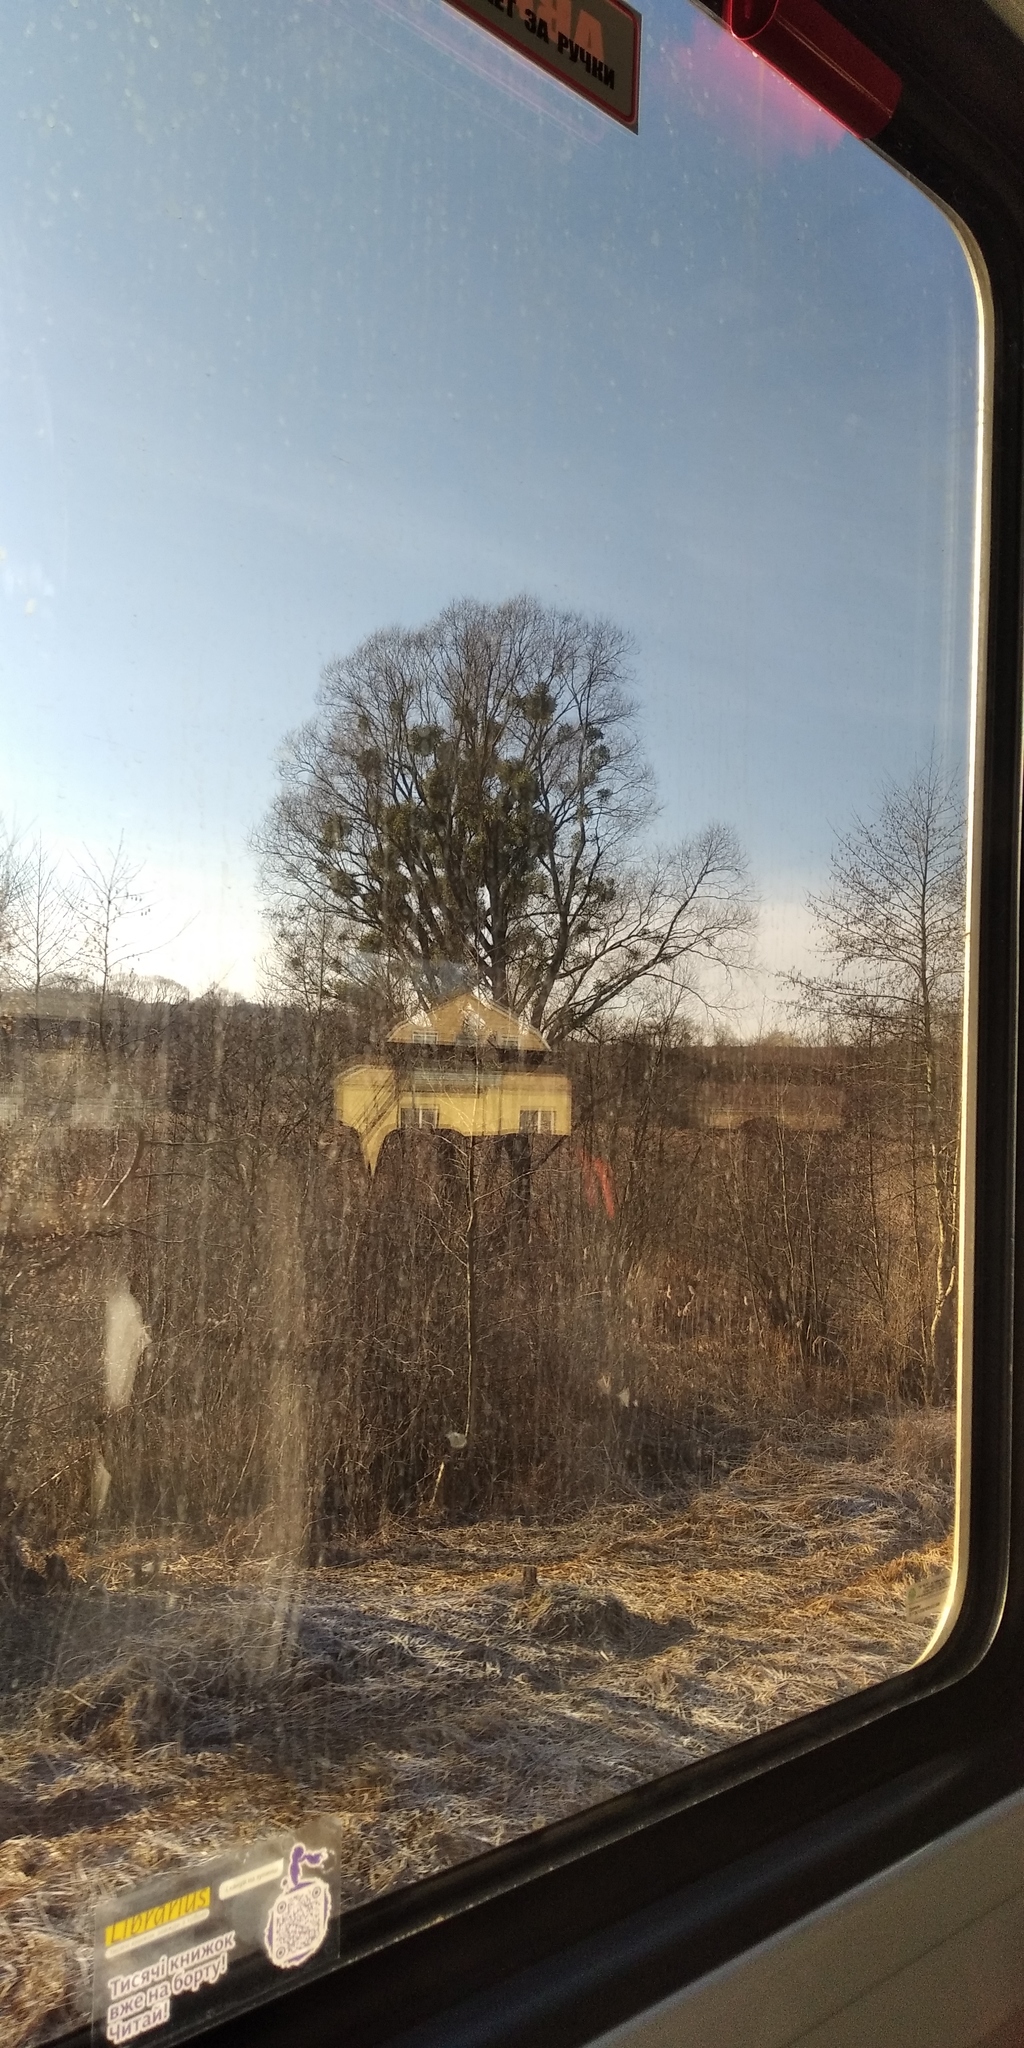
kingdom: Plantae
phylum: Tracheophyta
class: Magnoliopsida
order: Santalales
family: Viscaceae
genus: Viscum
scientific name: Viscum album
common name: Mistletoe
